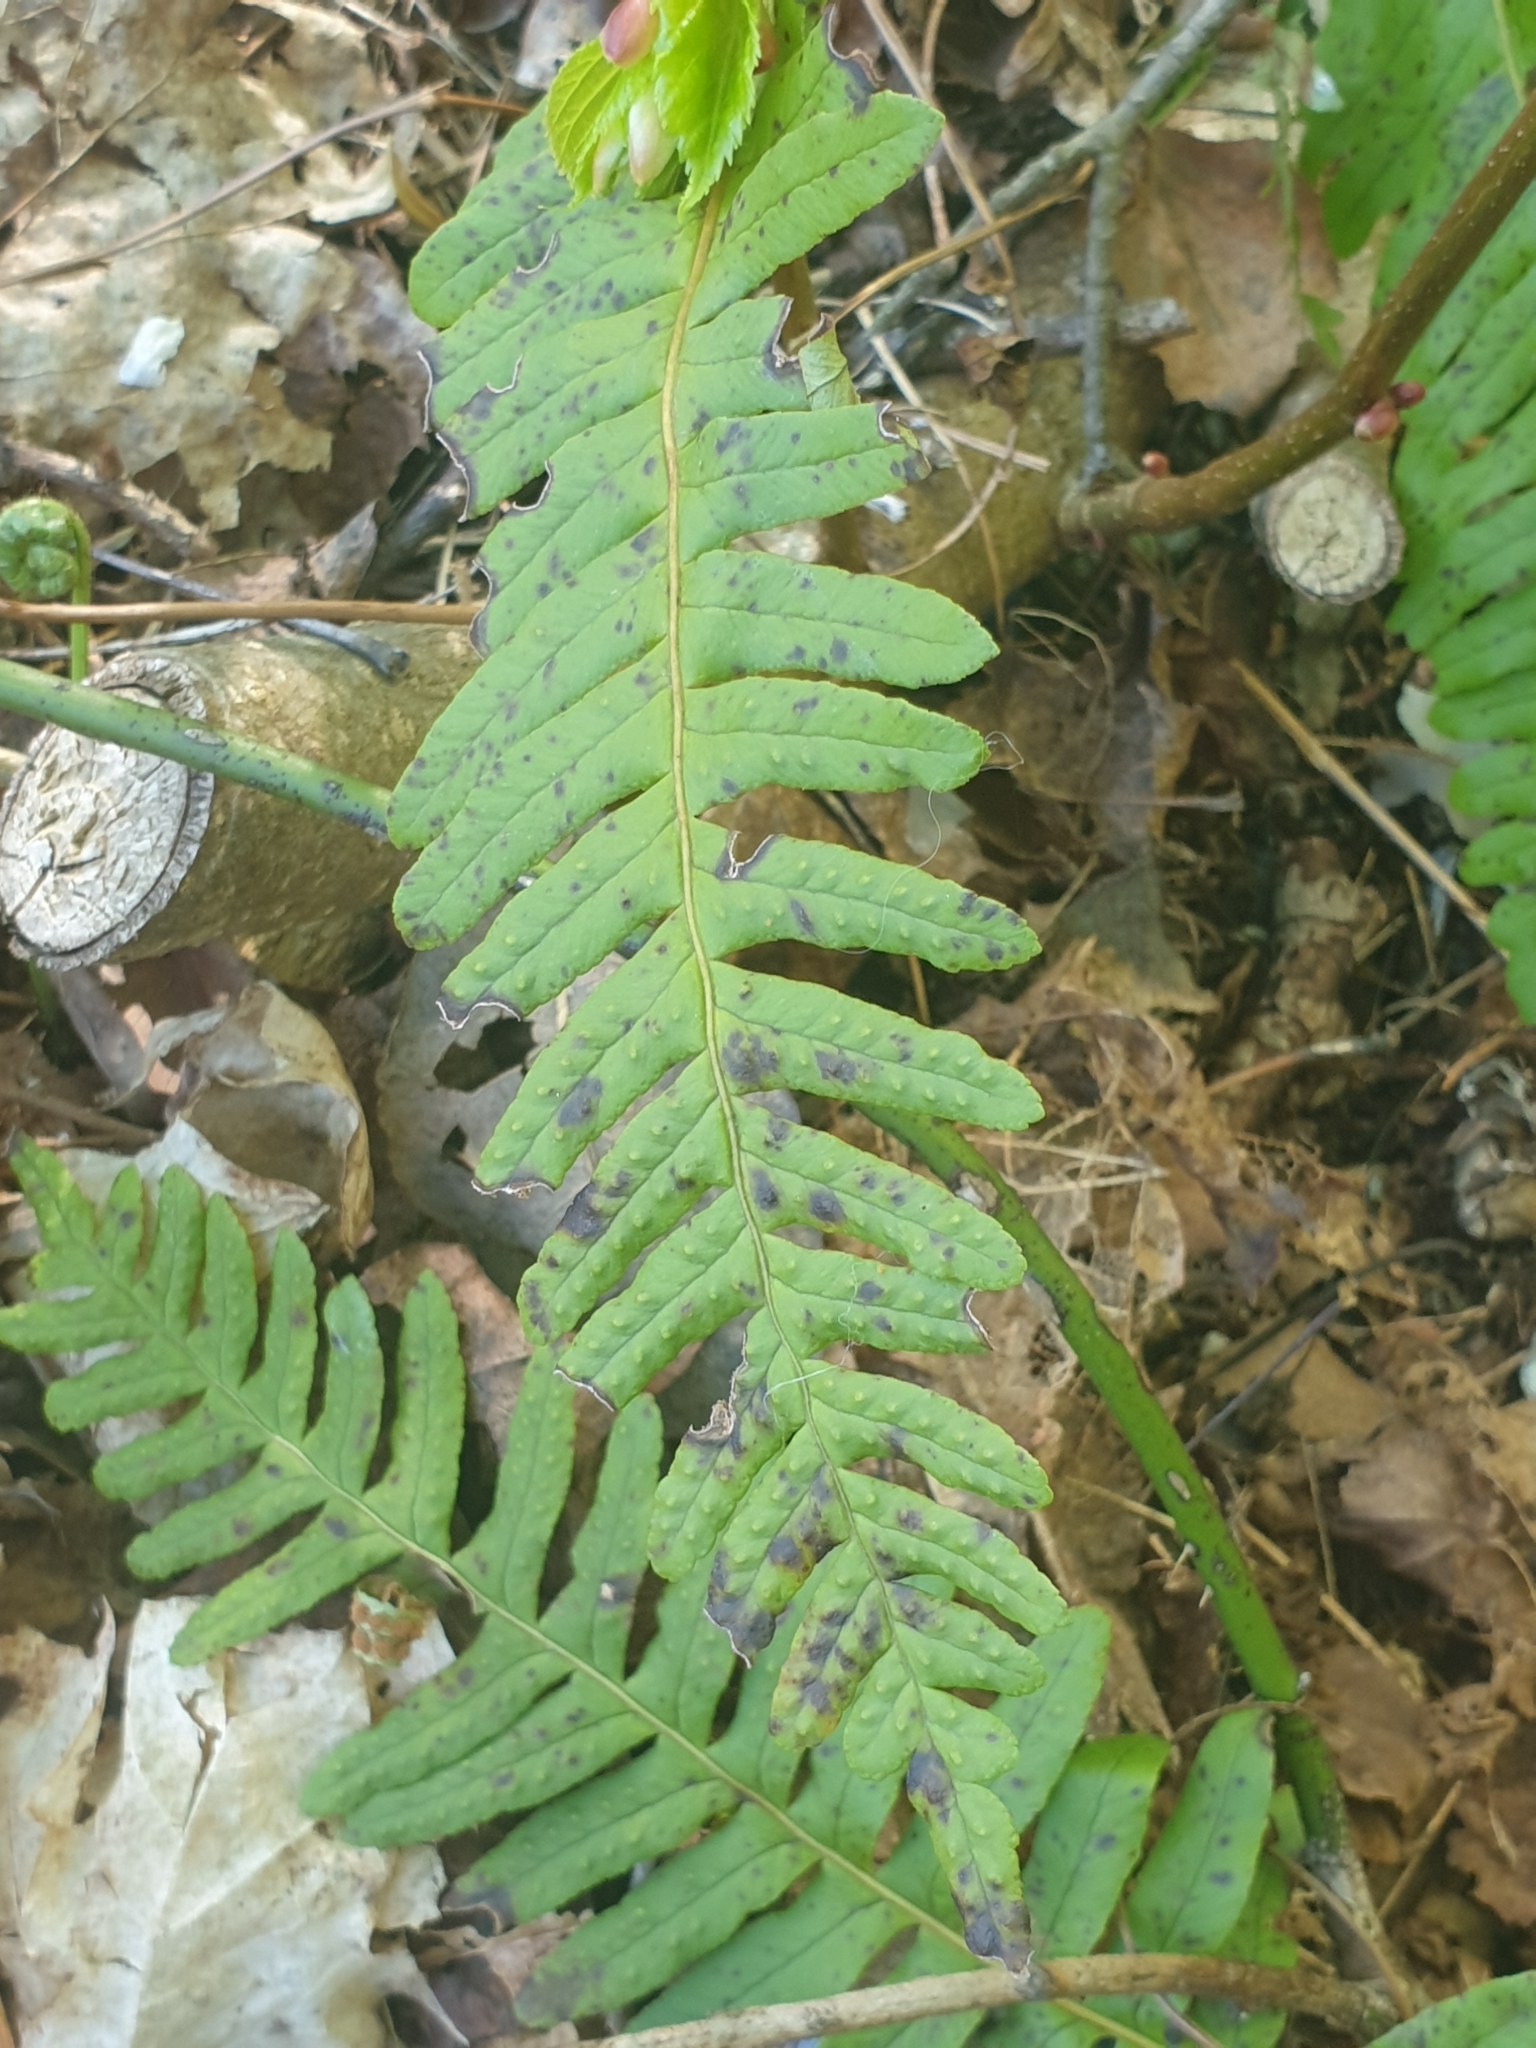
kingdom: Plantae
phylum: Tracheophyta
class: Polypodiopsida
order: Polypodiales
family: Polypodiaceae
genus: Polypodium
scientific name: Polypodium vulgare
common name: Common polypody
